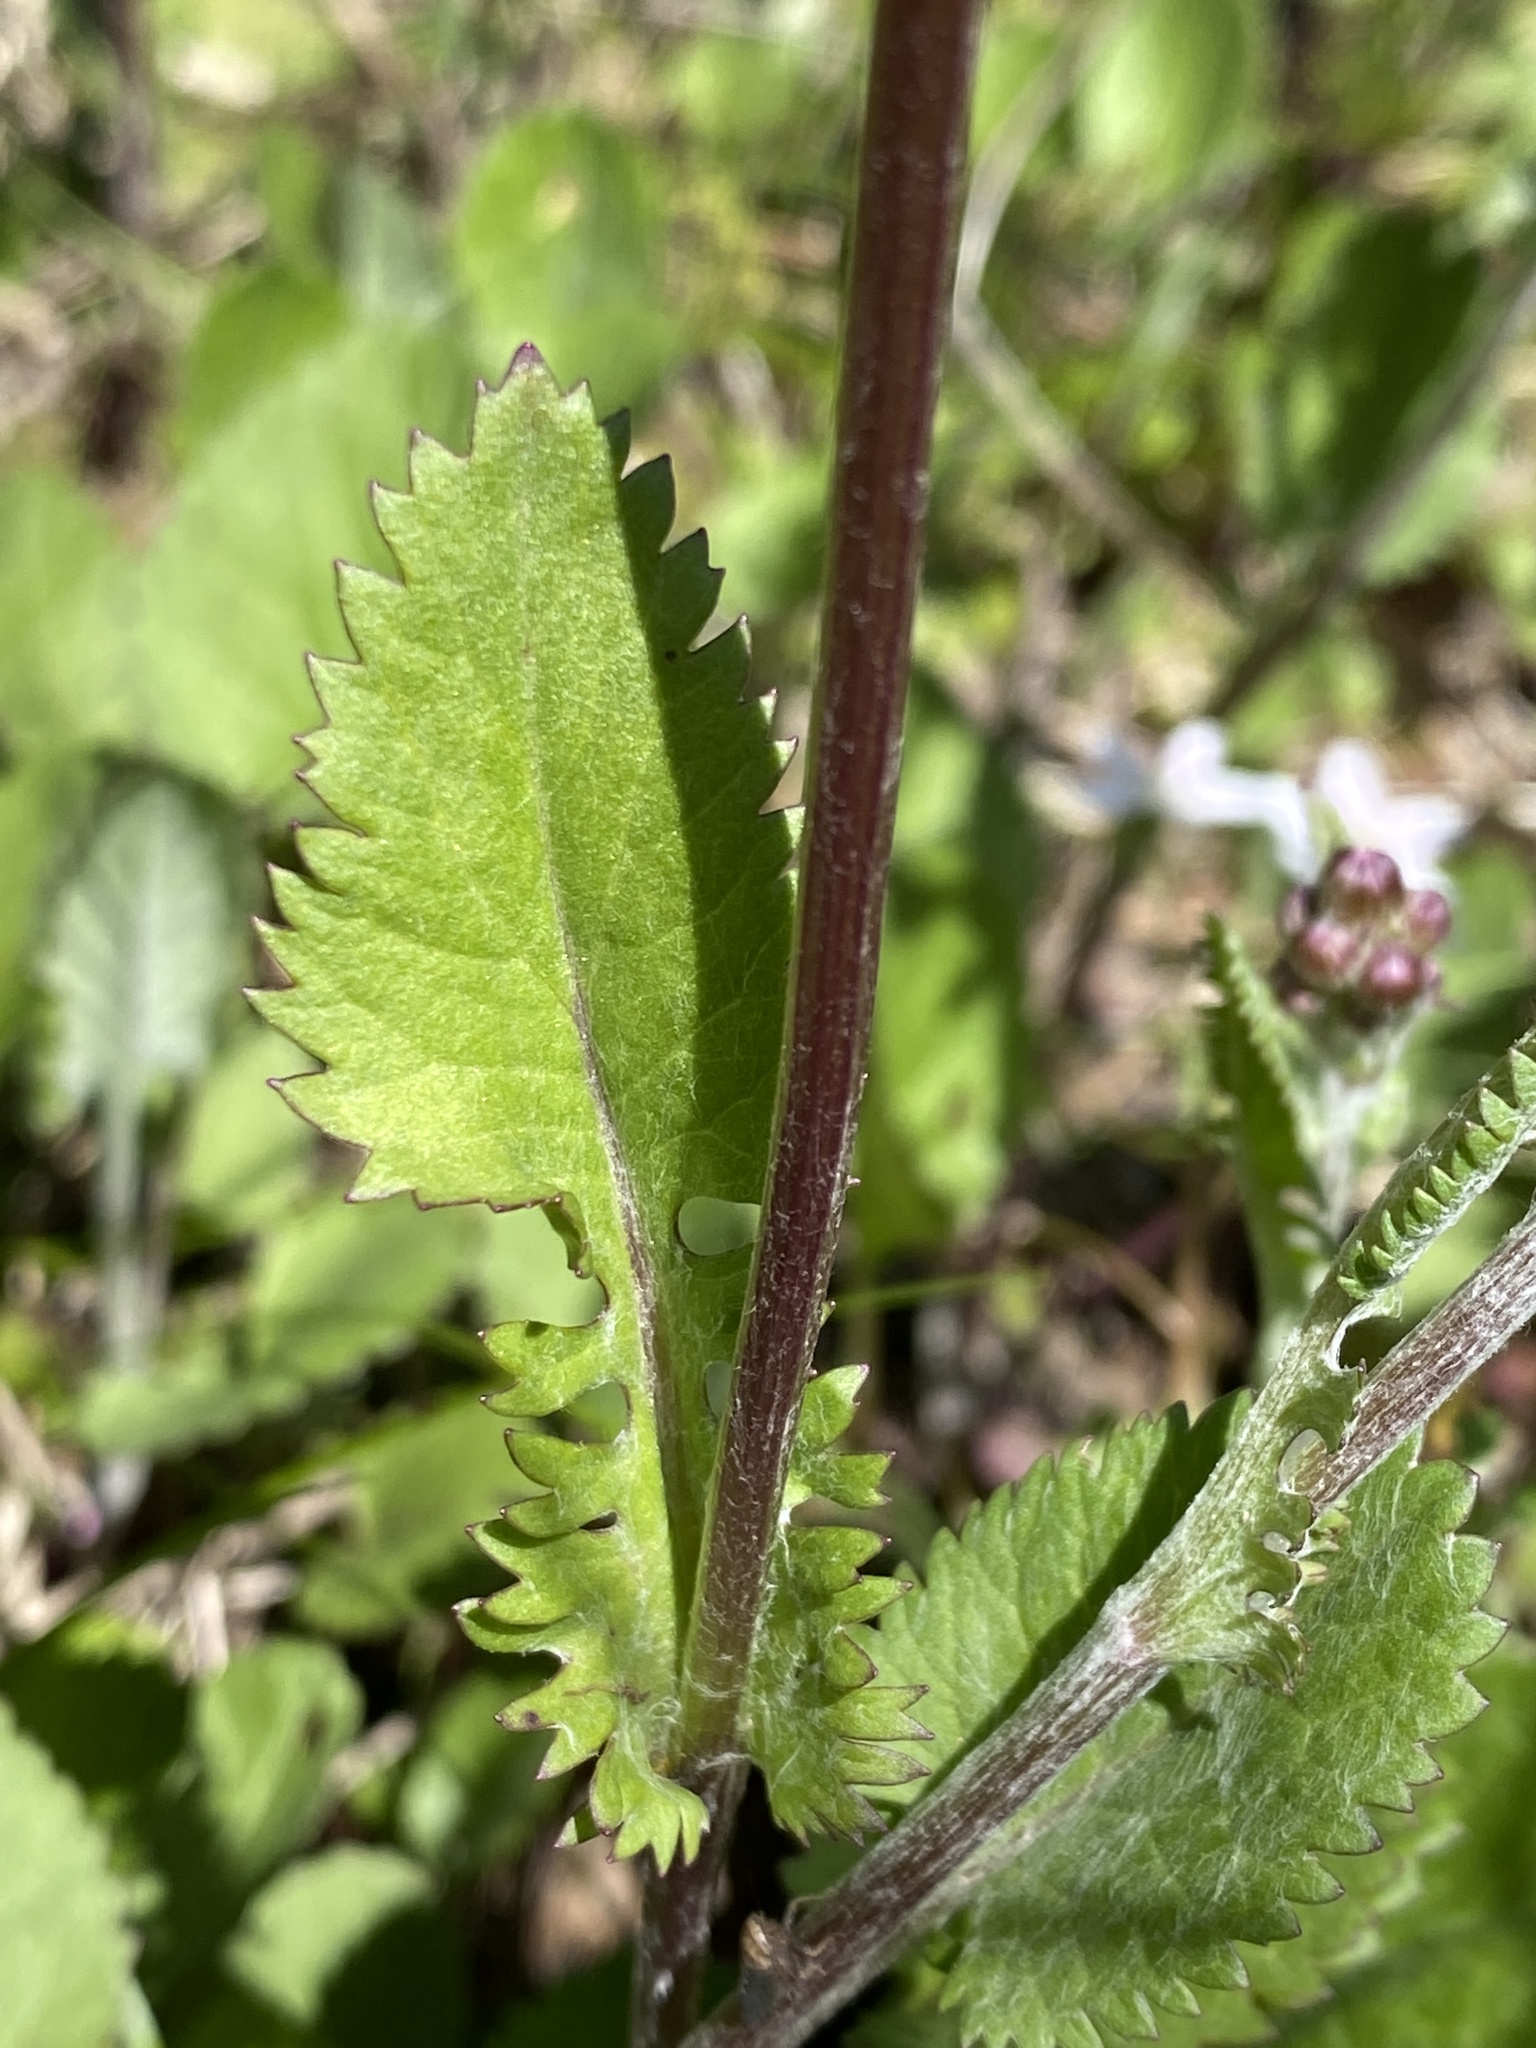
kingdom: Plantae
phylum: Tracheophyta
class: Magnoliopsida
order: Asterales
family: Asteraceae
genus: Packera
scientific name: Packera obovata
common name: Round-leaf ragwort
